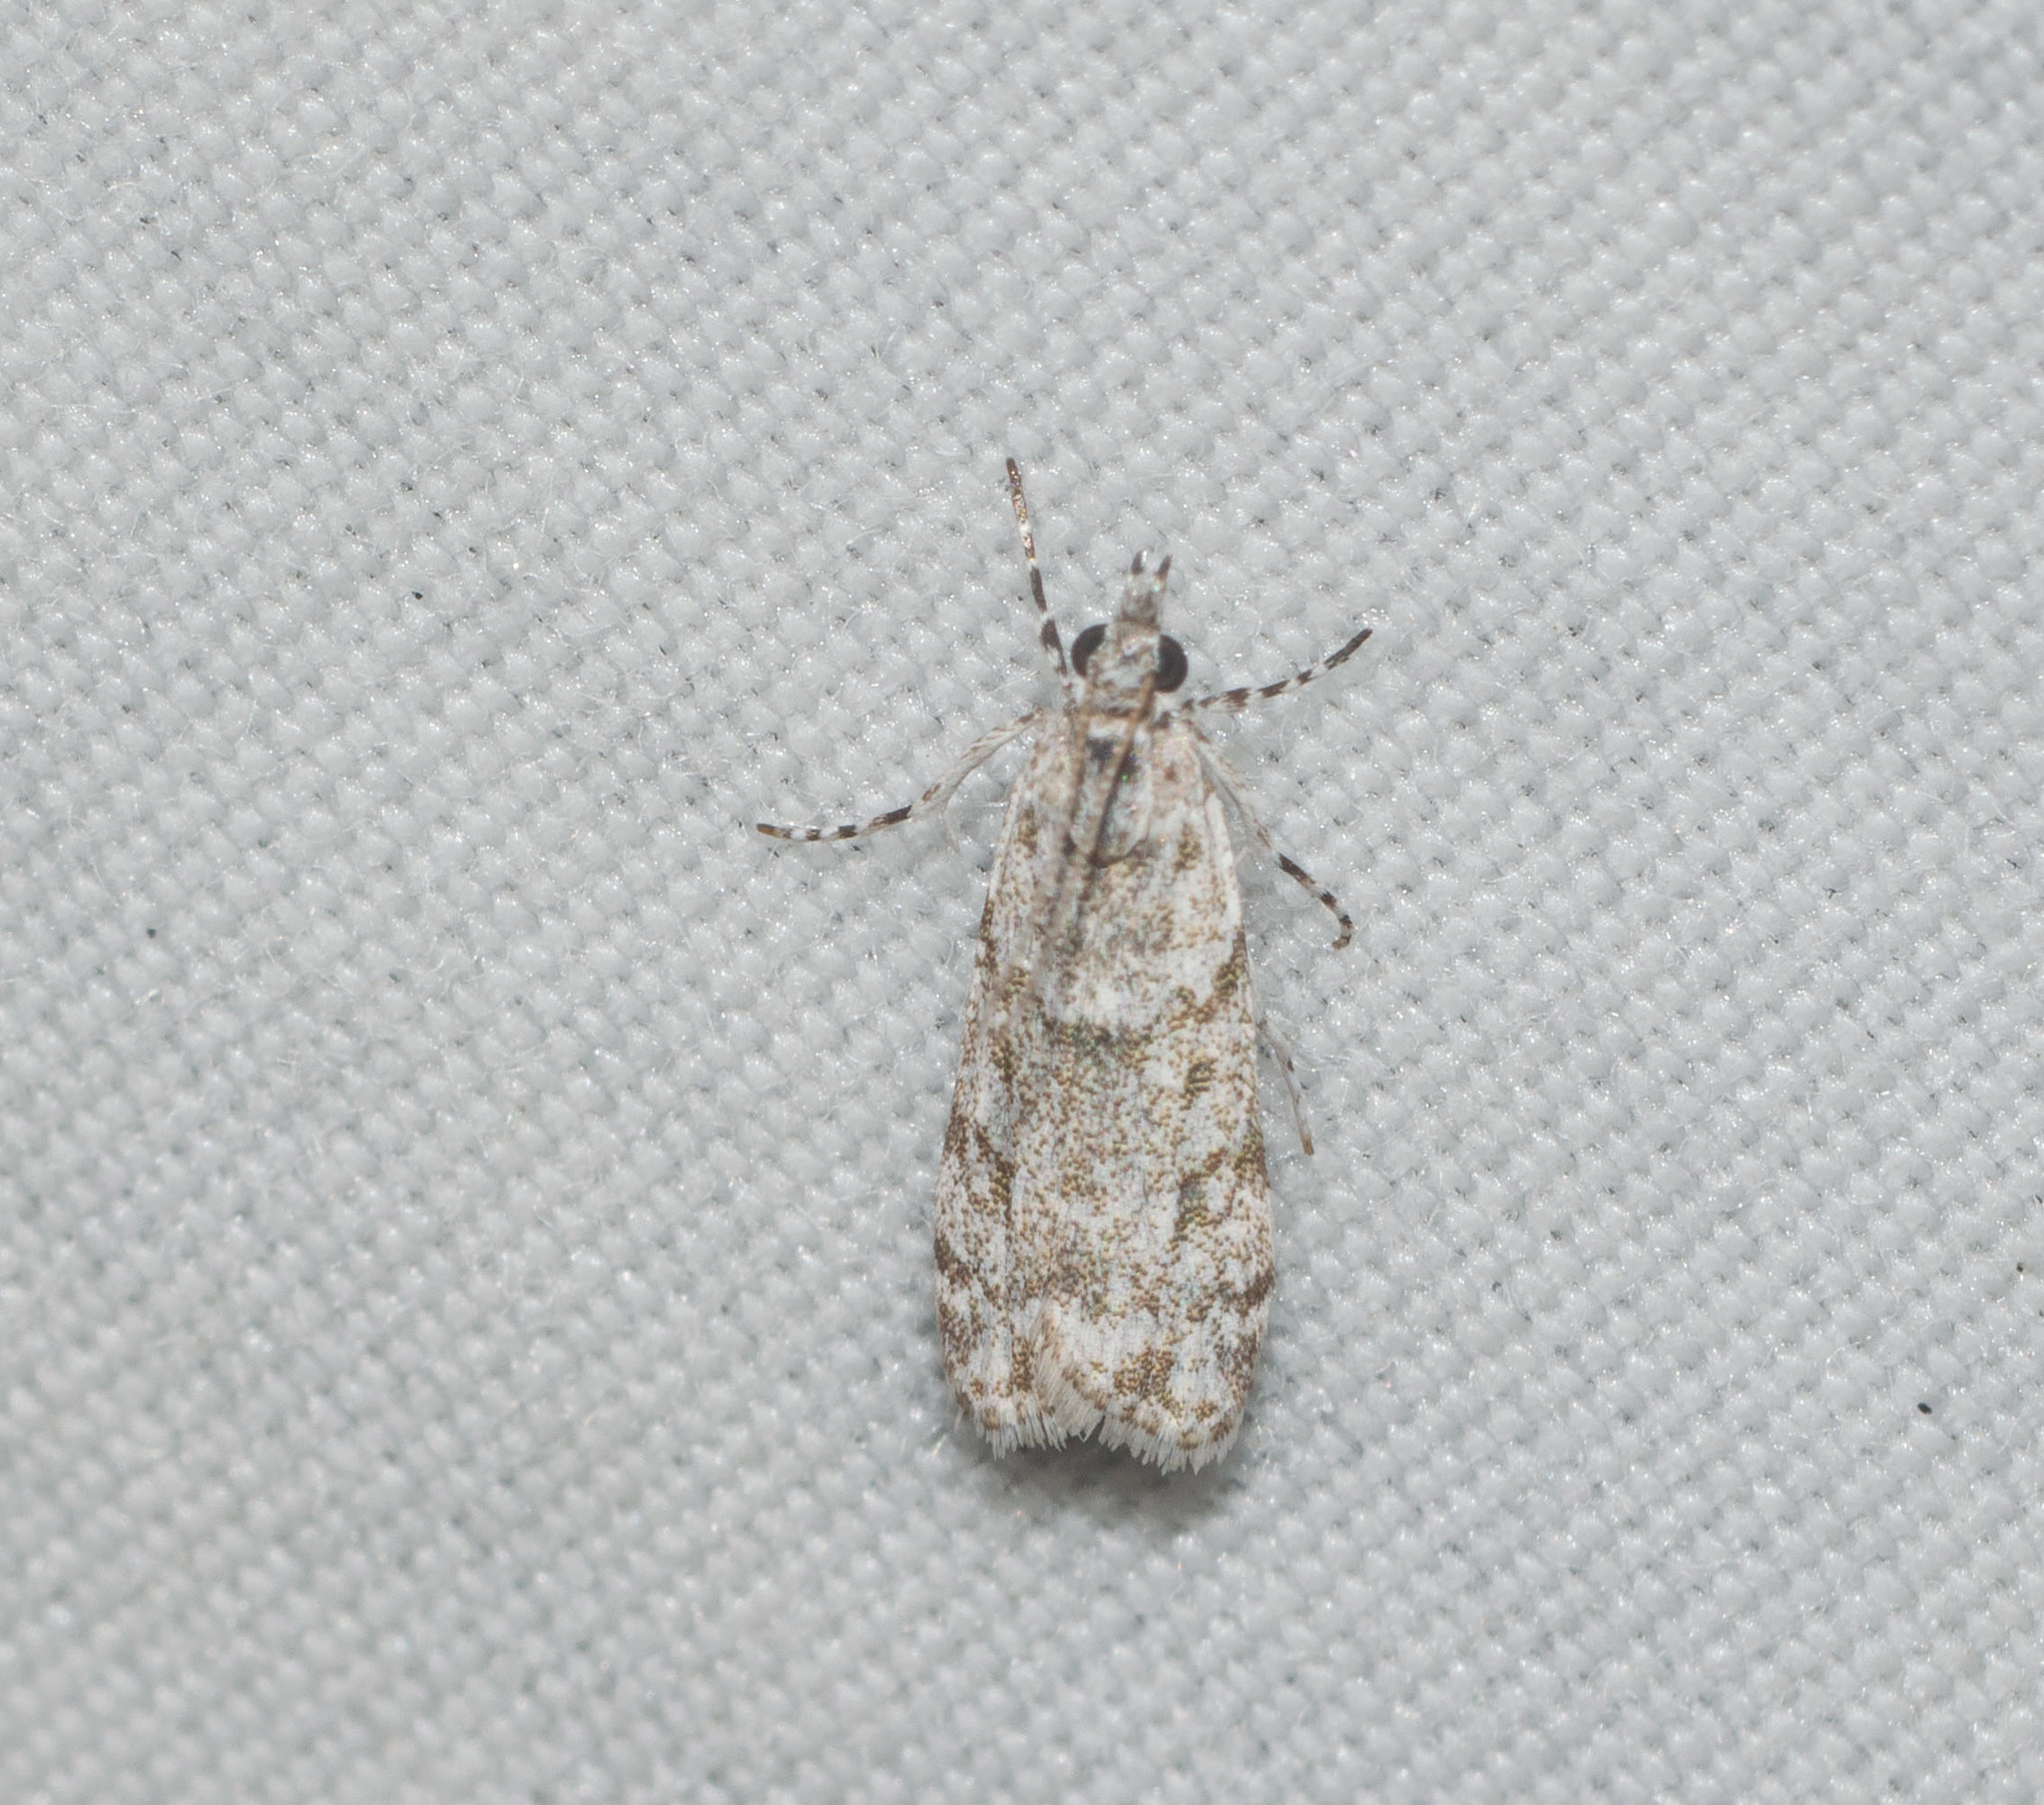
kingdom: Animalia
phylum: Arthropoda
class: Insecta
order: Lepidoptera
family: Crambidae
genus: Eudonia
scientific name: Eudonia geraea
